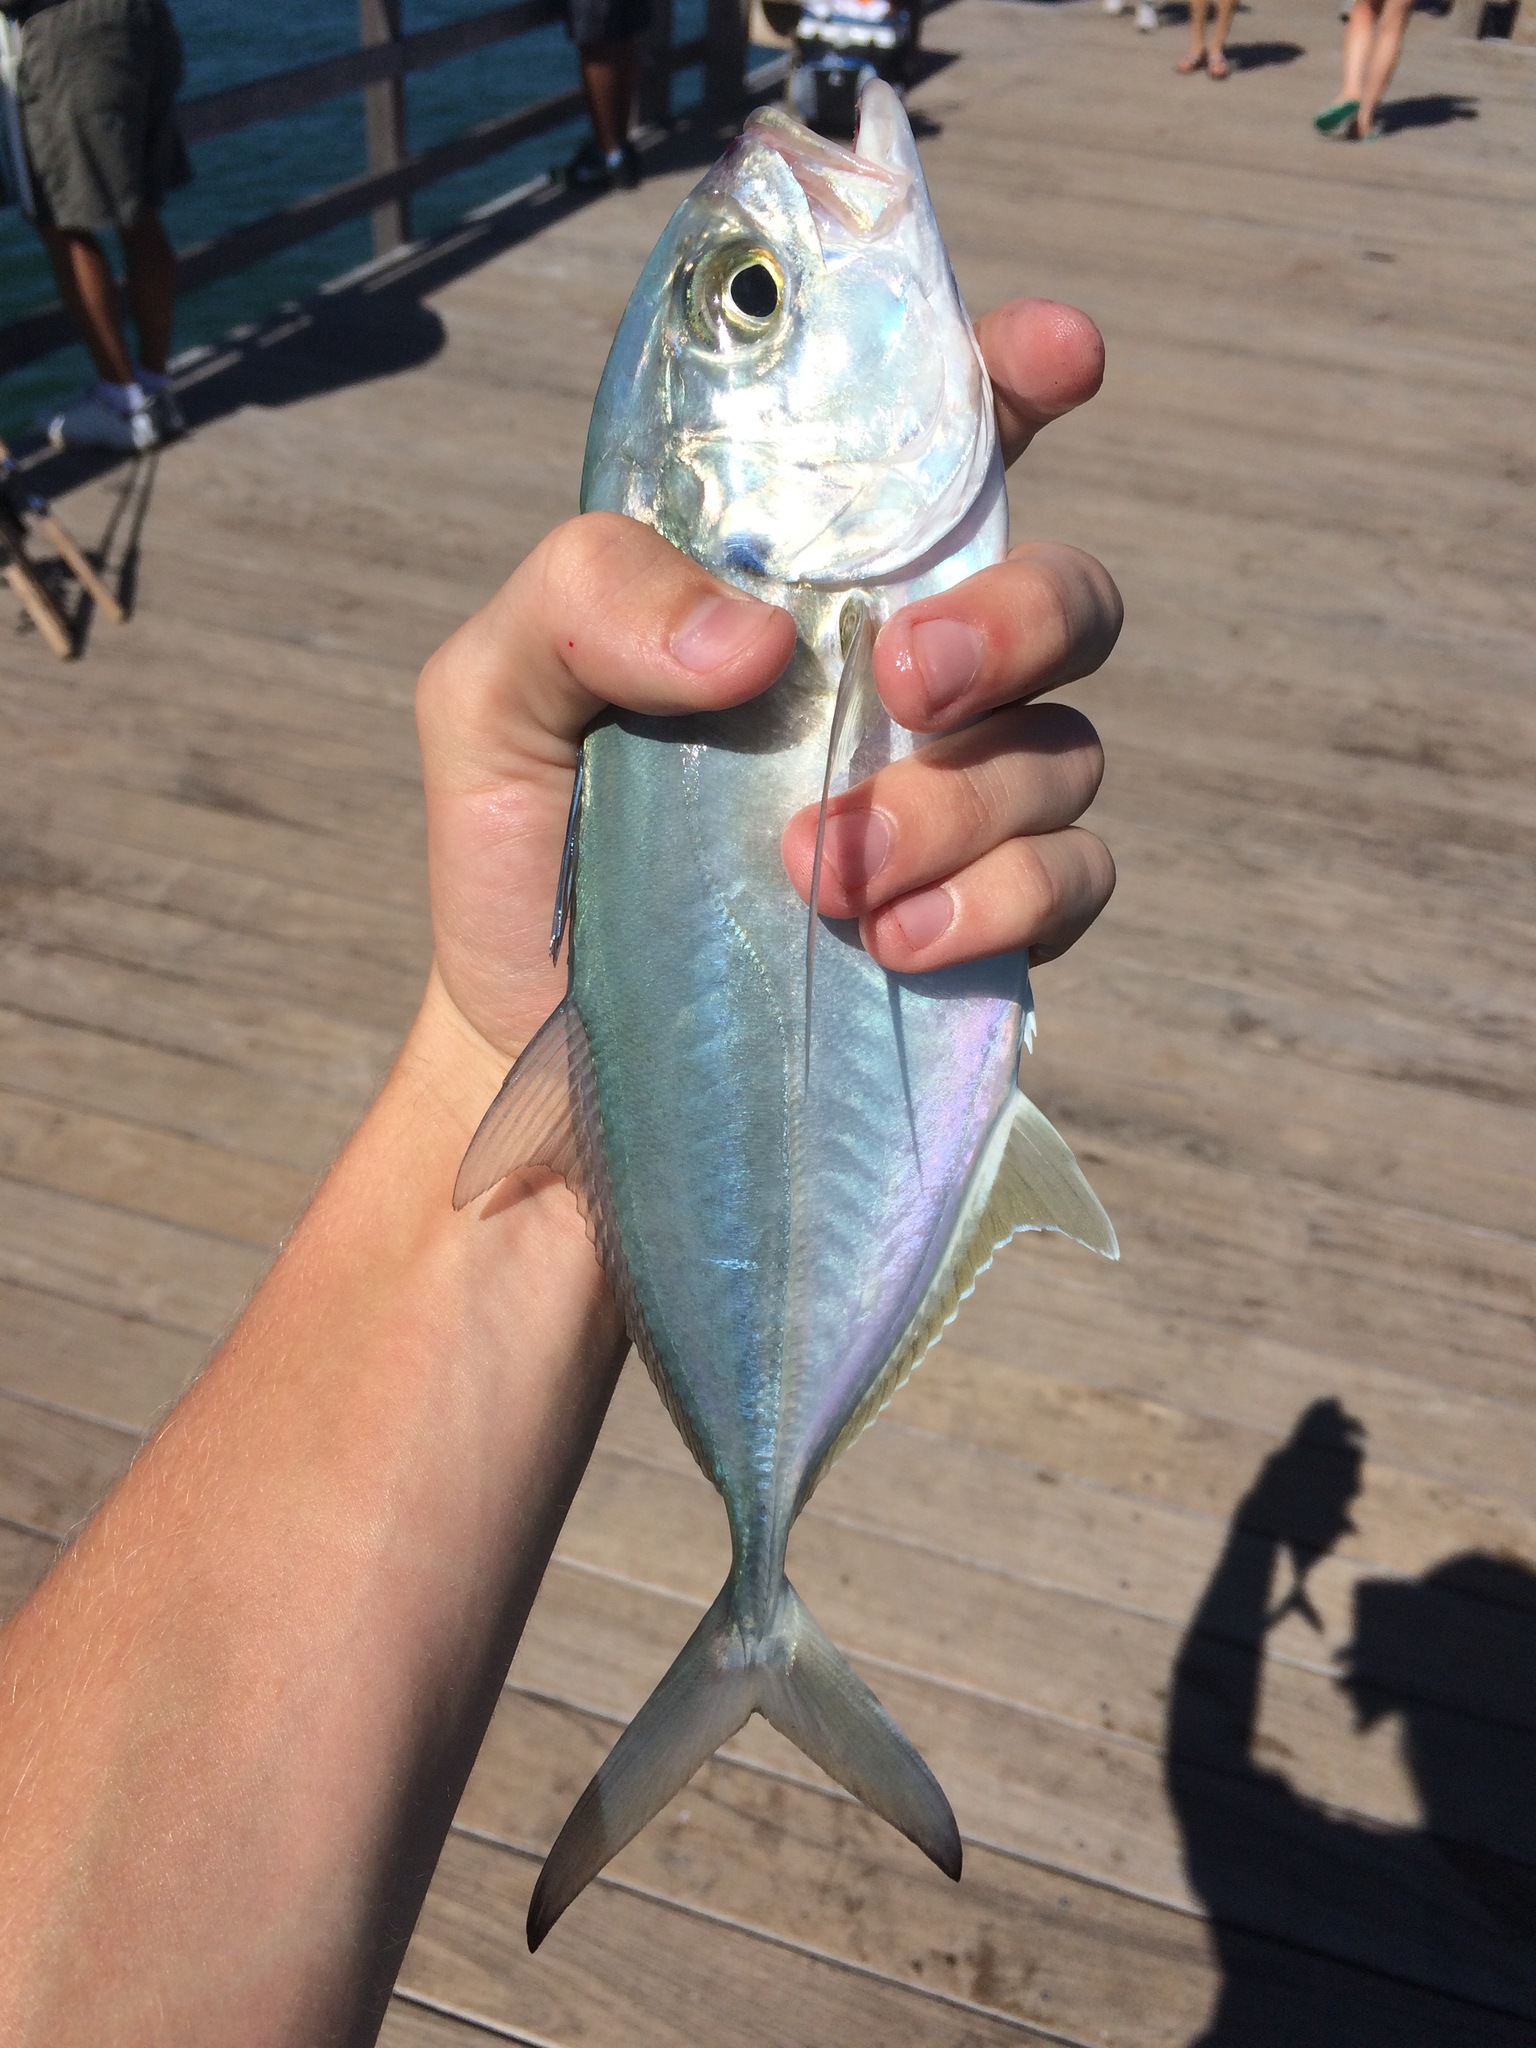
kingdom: Animalia
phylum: Chordata
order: Perciformes
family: Carangidae
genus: Caranx
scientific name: Caranx crysos
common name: Blue runner
